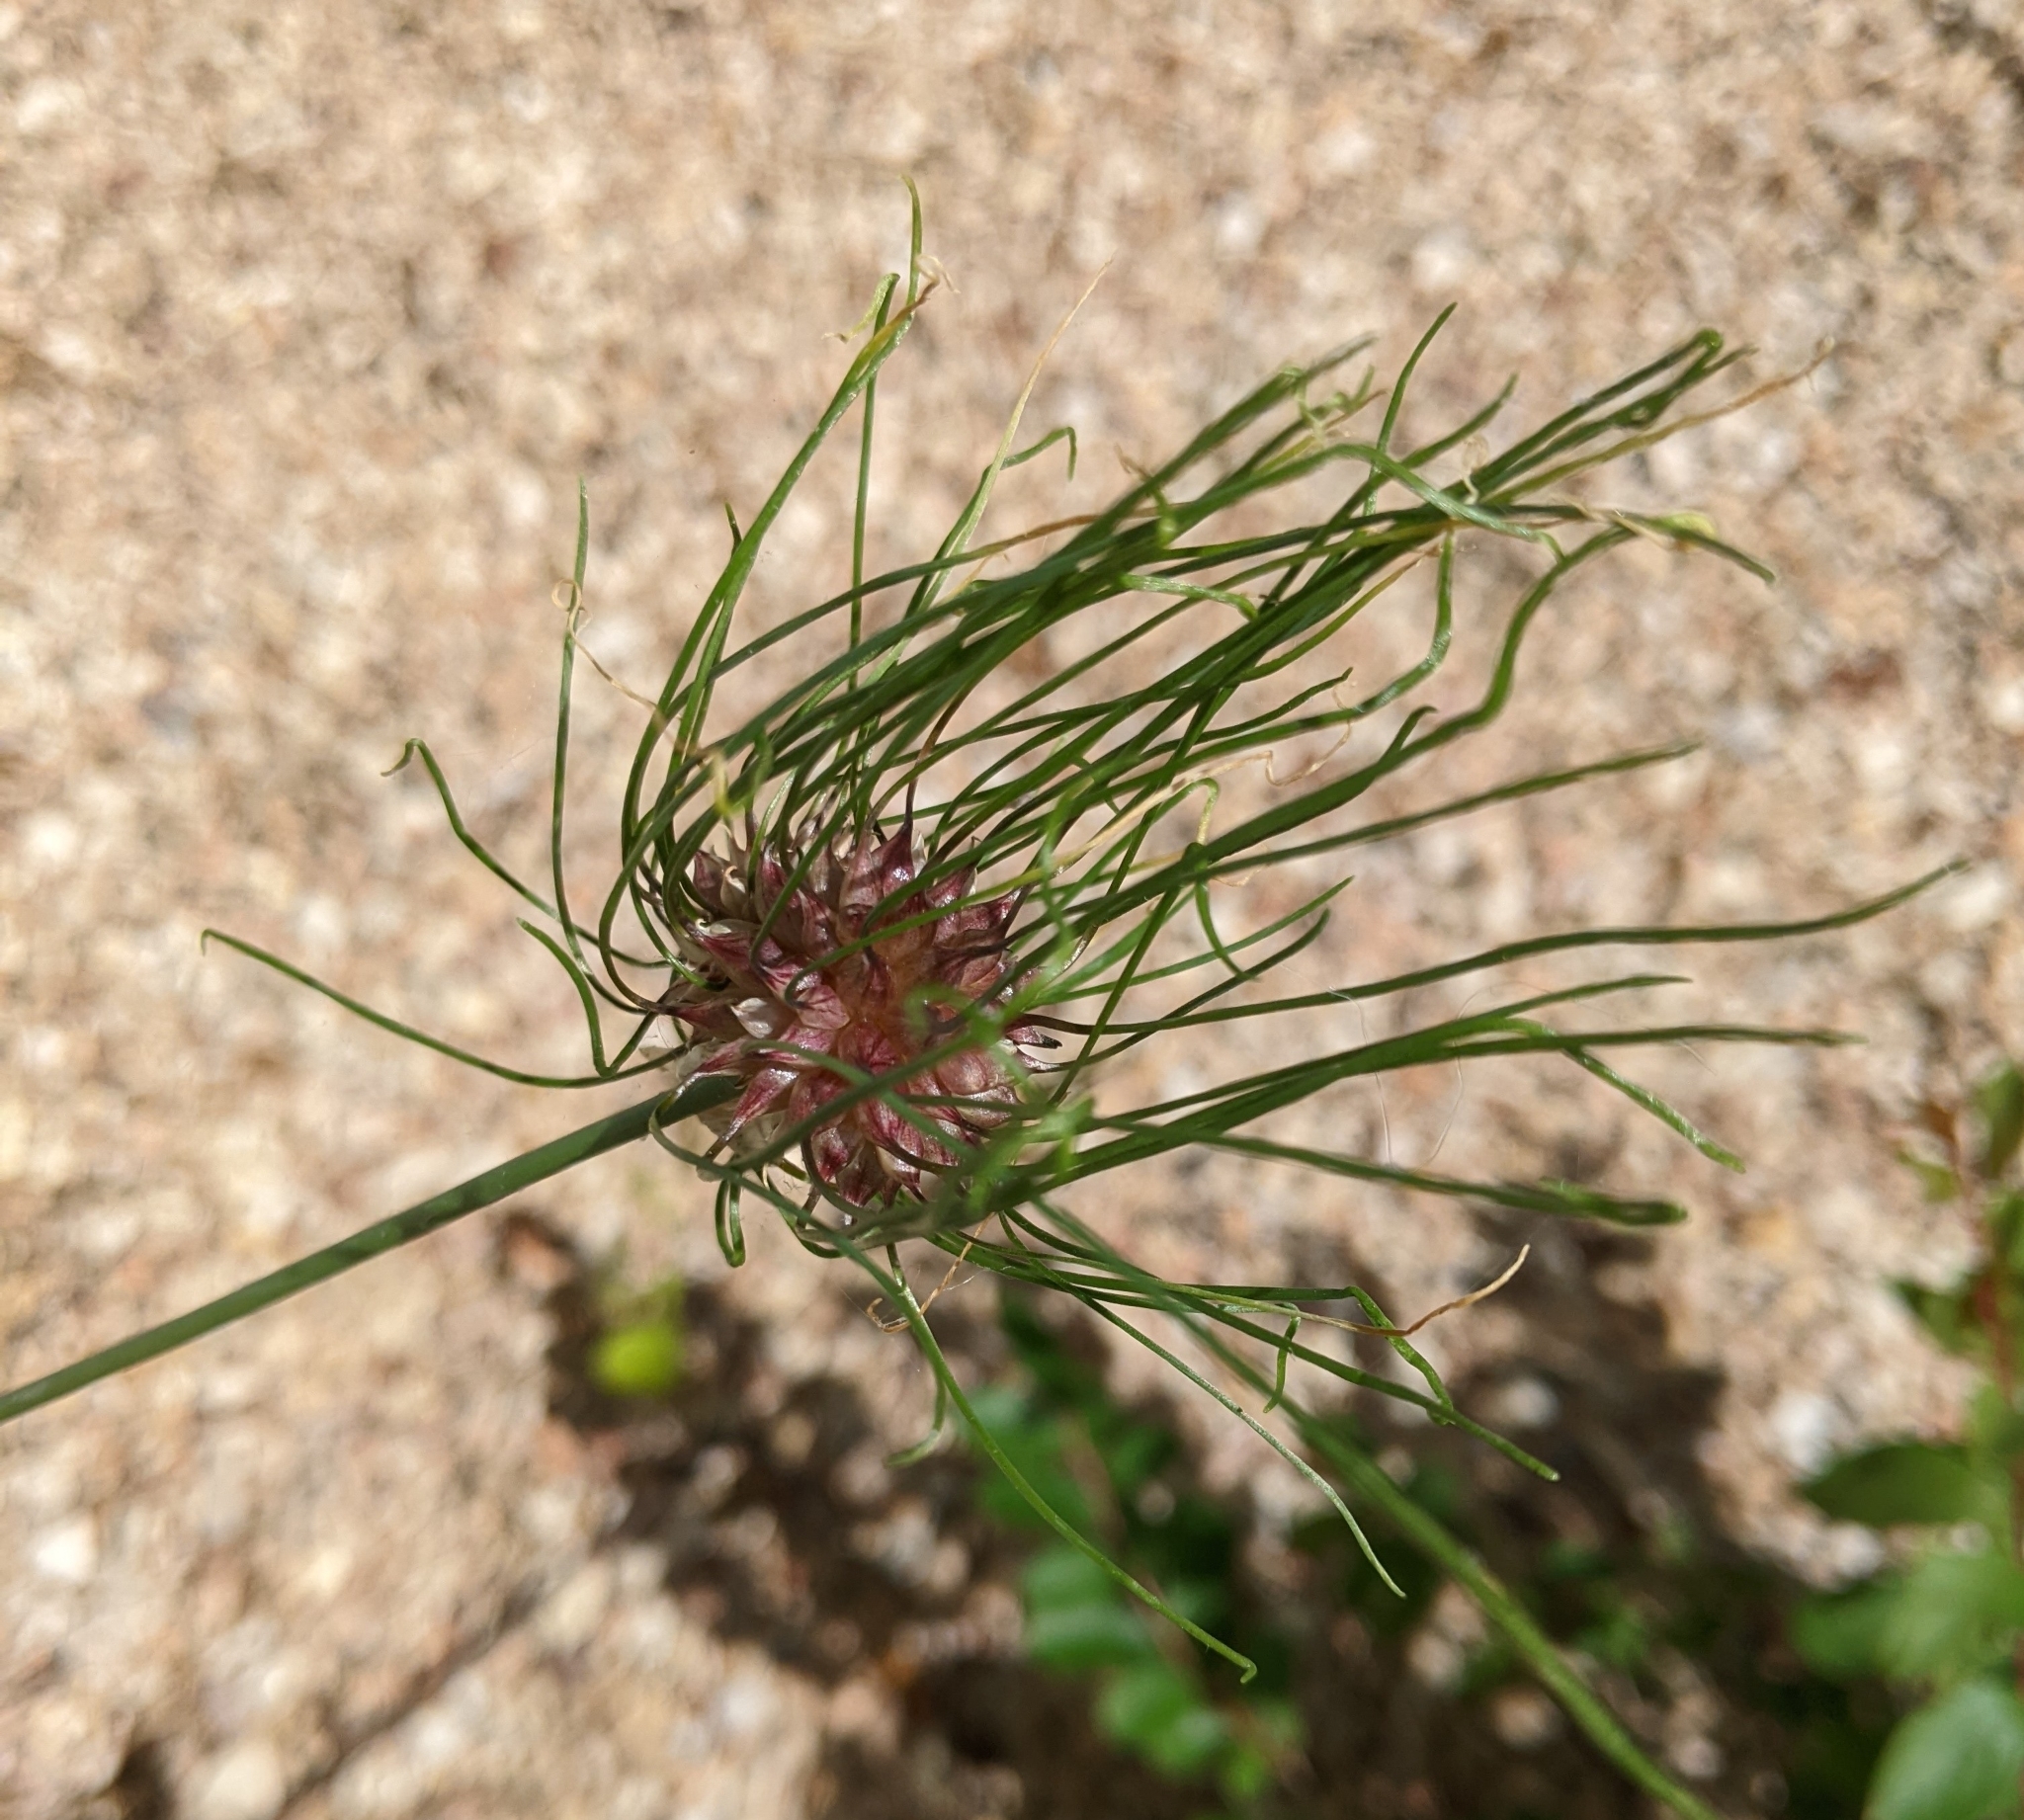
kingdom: Plantae
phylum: Tracheophyta
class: Liliopsida
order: Asparagales
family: Amaryllidaceae
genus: Allium
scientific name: Allium vineale
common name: Crow garlic
